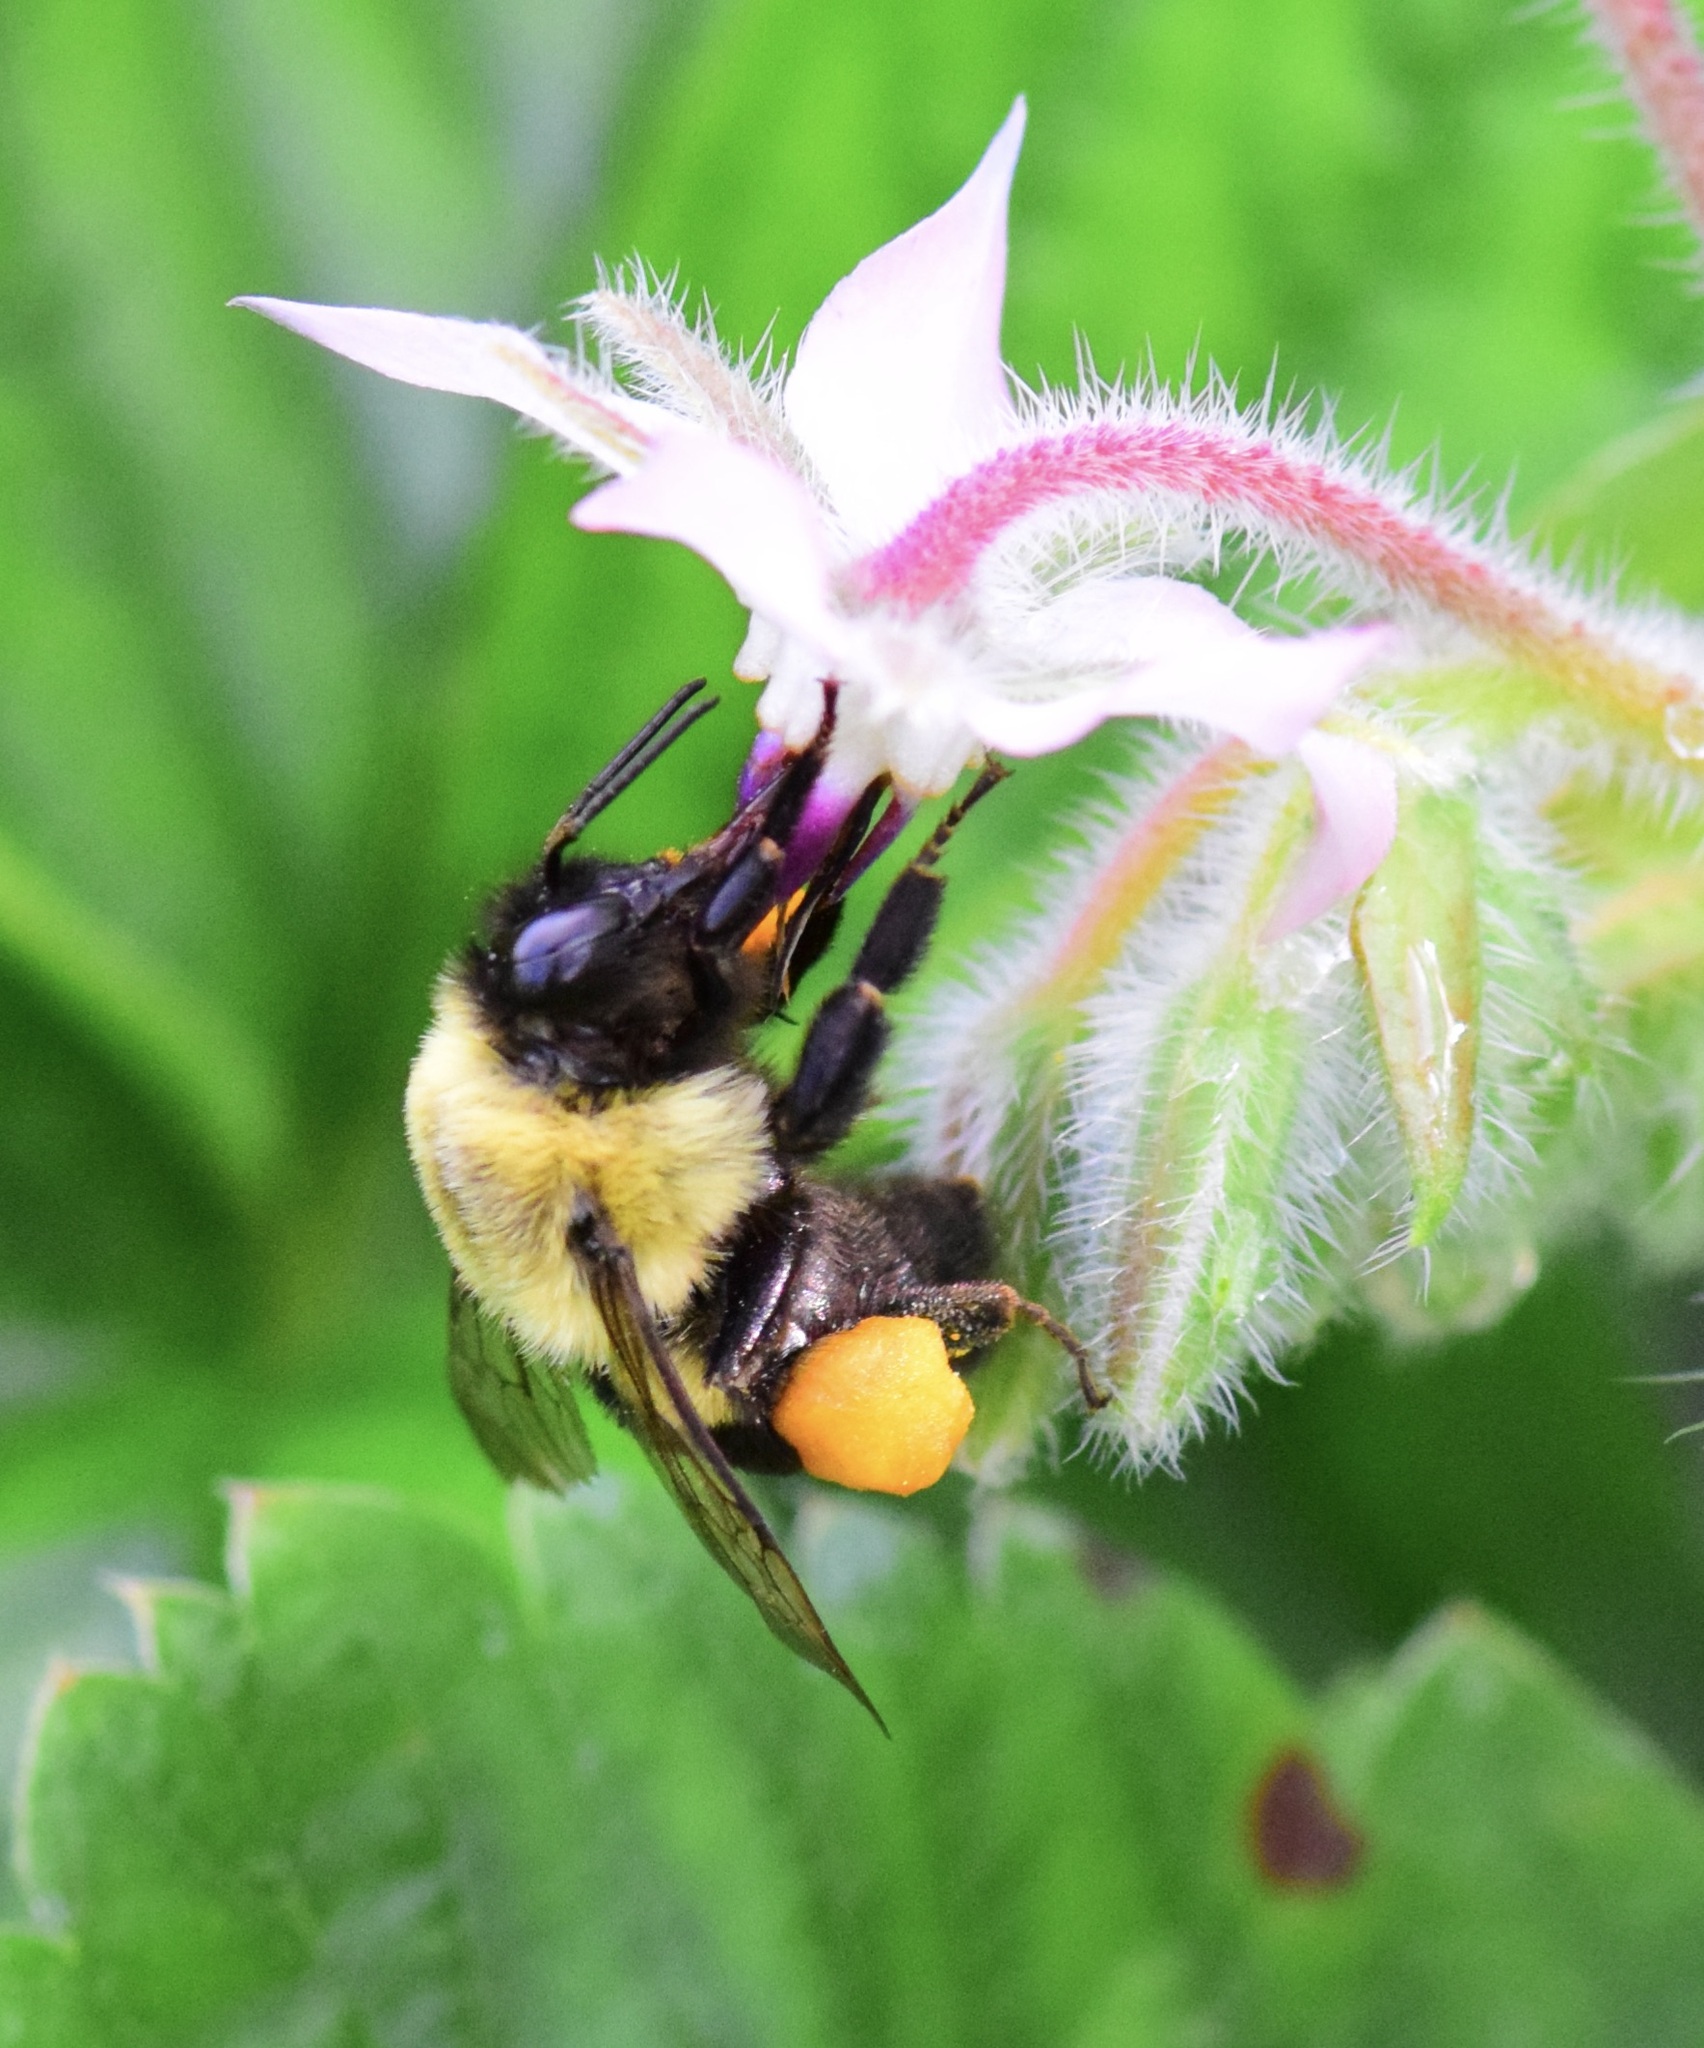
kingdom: Animalia
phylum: Arthropoda
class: Insecta
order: Hymenoptera
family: Apidae
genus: Bombus
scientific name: Bombus impatiens
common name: Common eastern bumble bee
